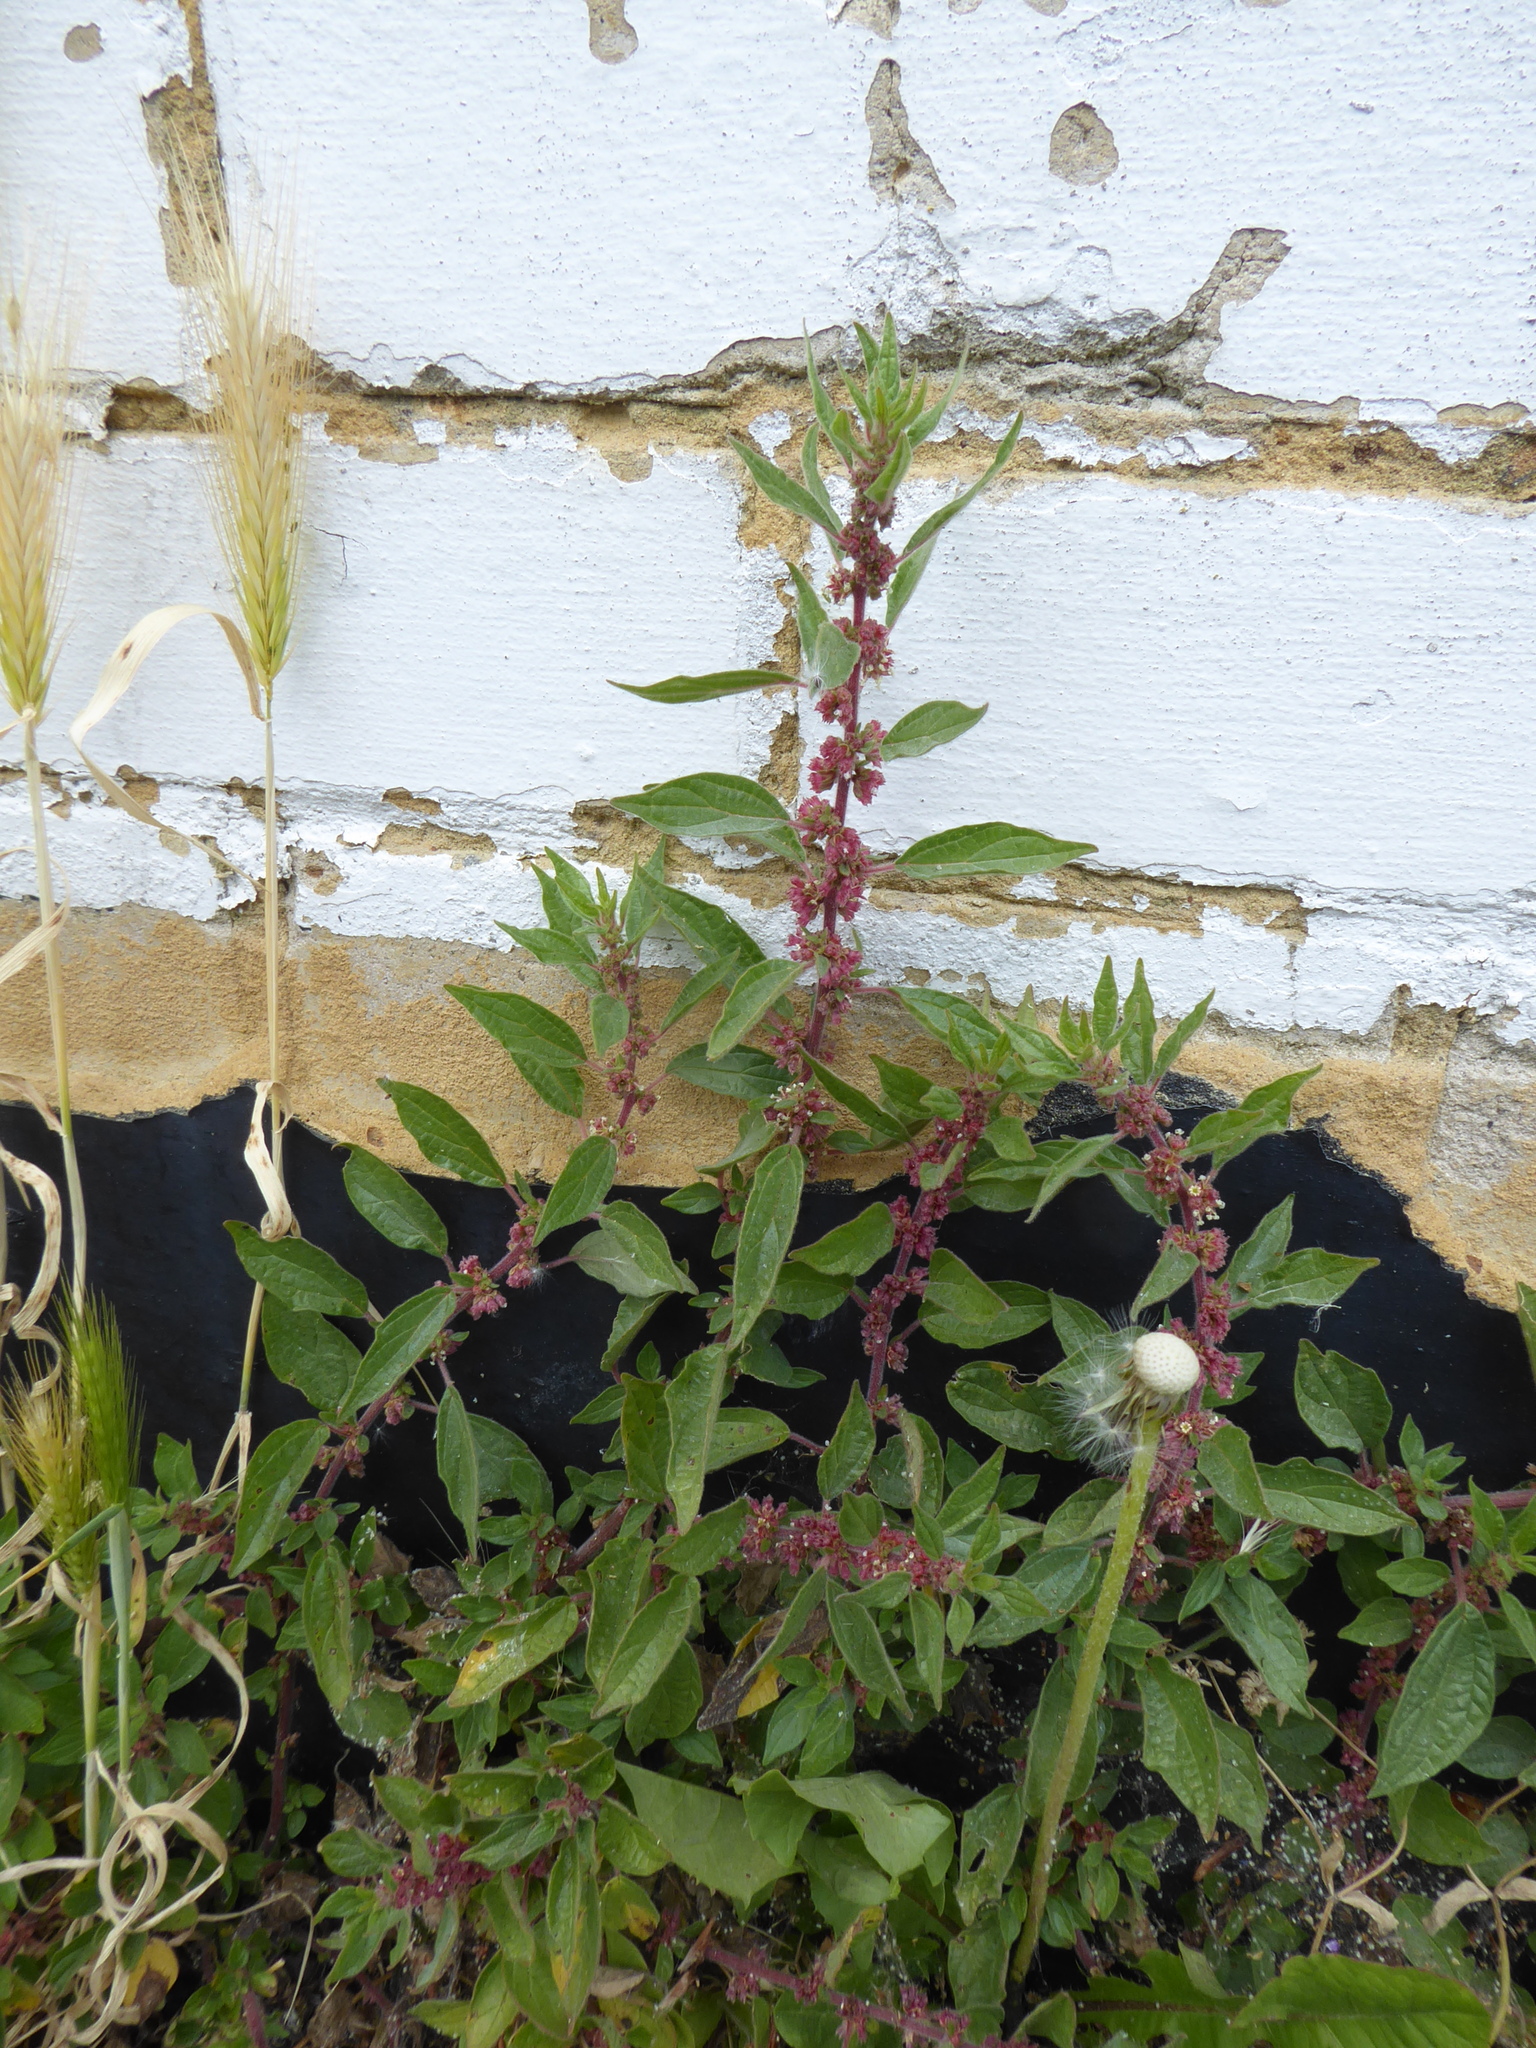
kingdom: Plantae
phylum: Tracheophyta
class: Magnoliopsida
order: Rosales
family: Urticaceae
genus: Parietaria
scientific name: Parietaria judaica
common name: Pellitory-of-the-wall
